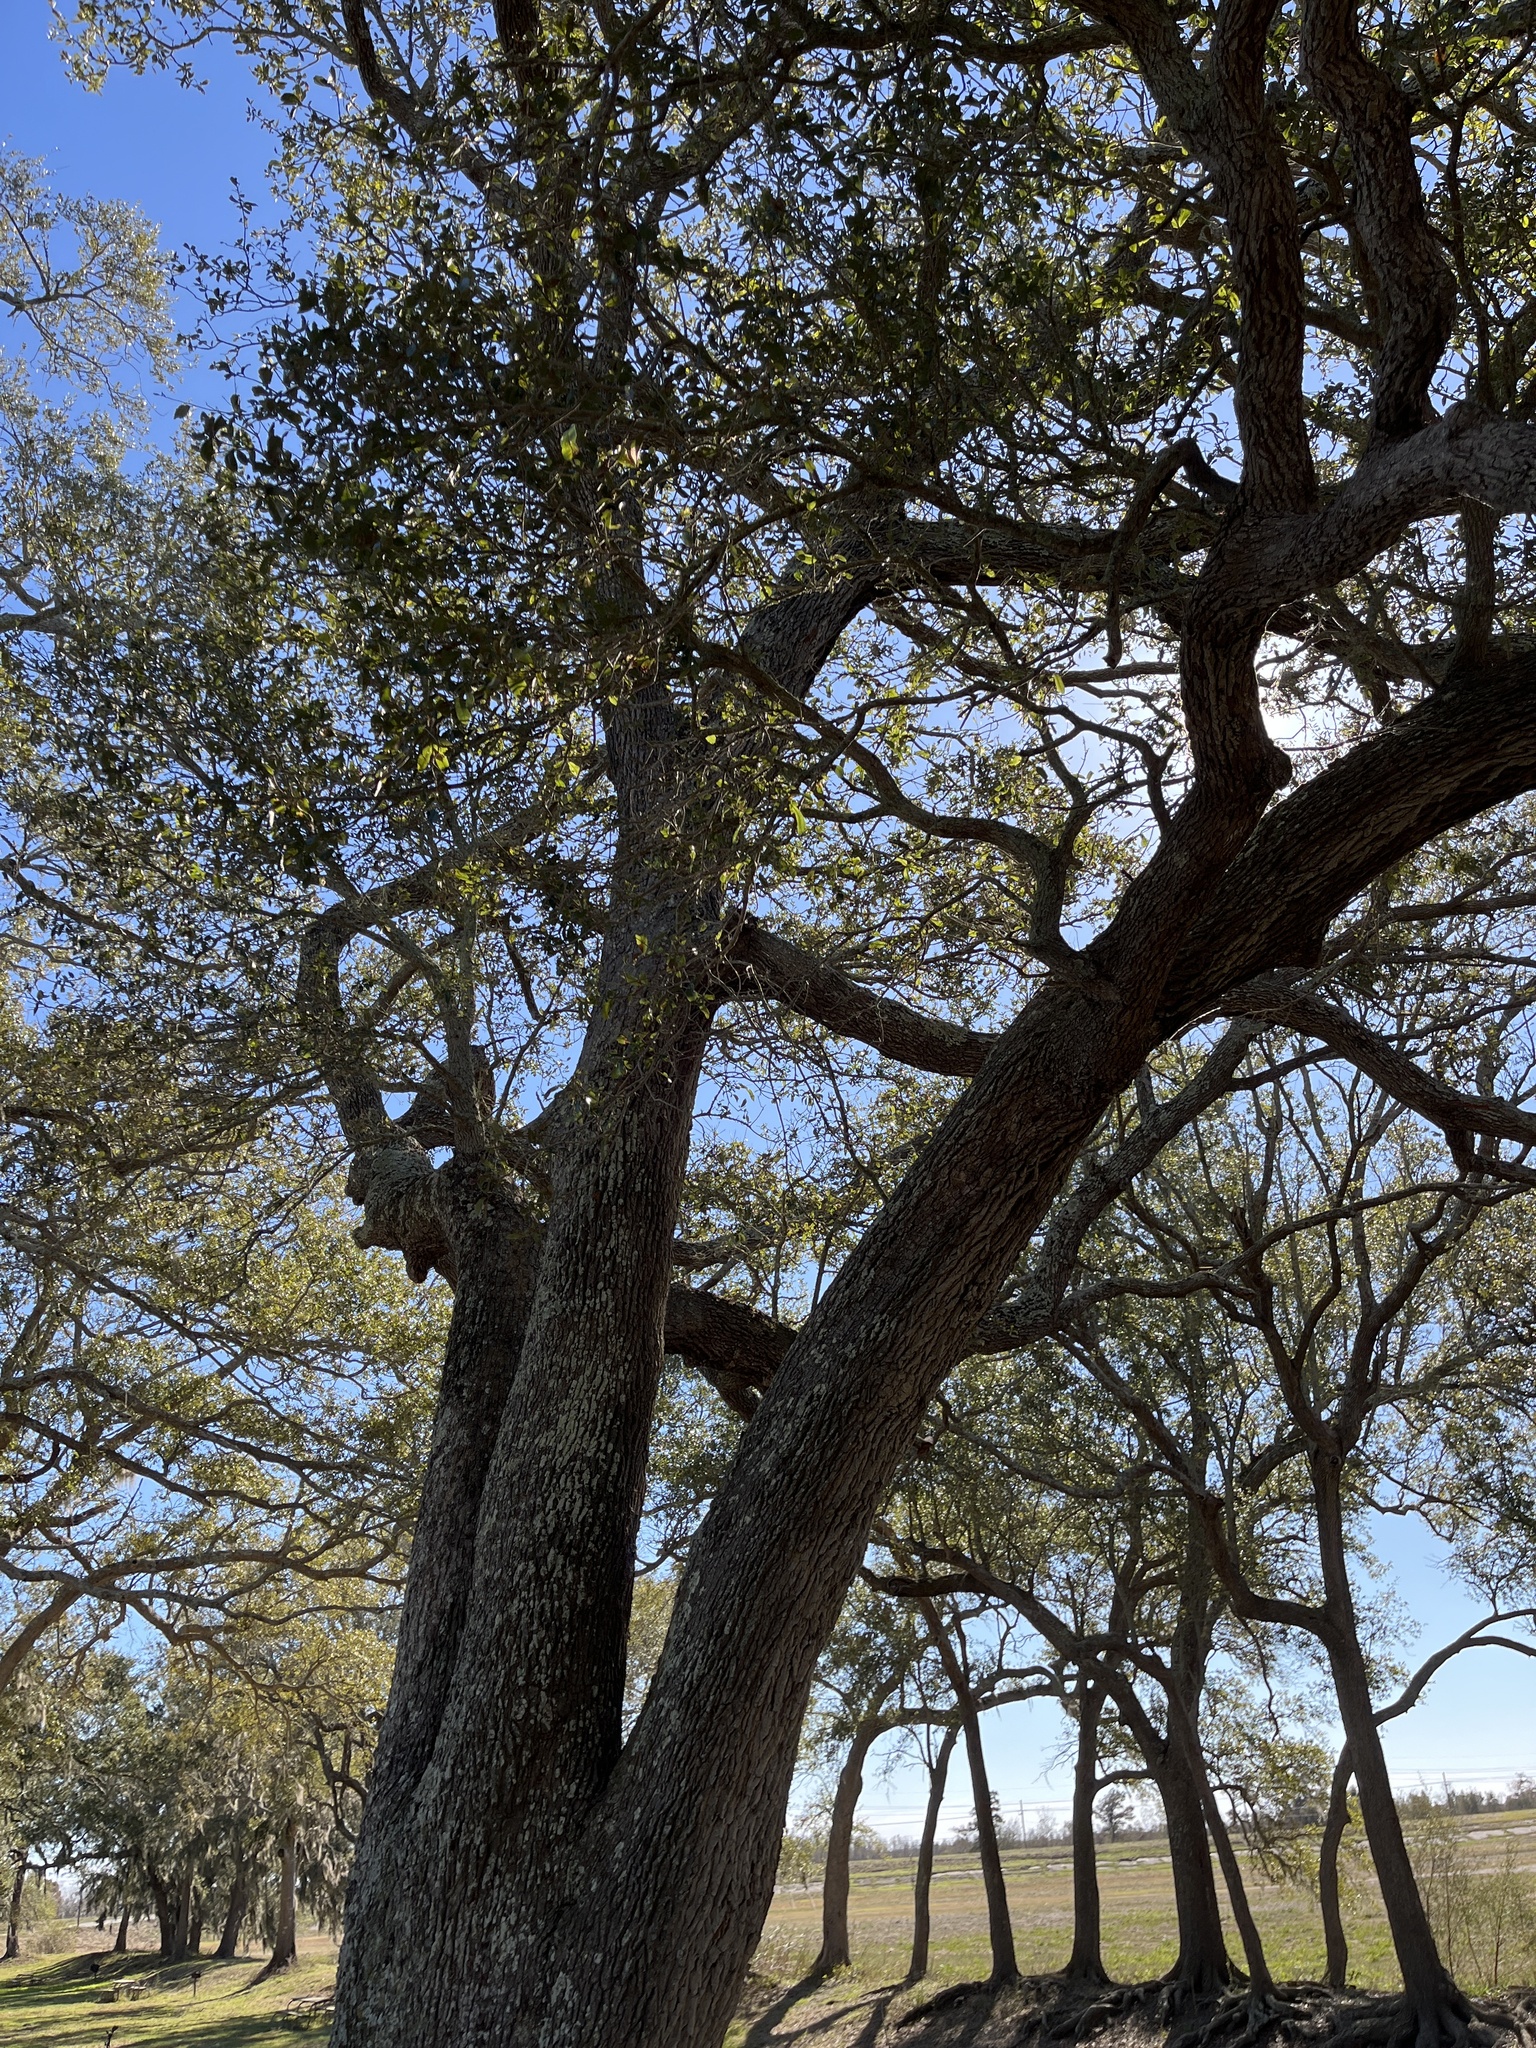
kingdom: Plantae
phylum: Tracheophyta
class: Magnoliopsida
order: Fagales
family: Fagaceae
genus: Quercus
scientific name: Quercus virginiana
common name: Southern live oak
